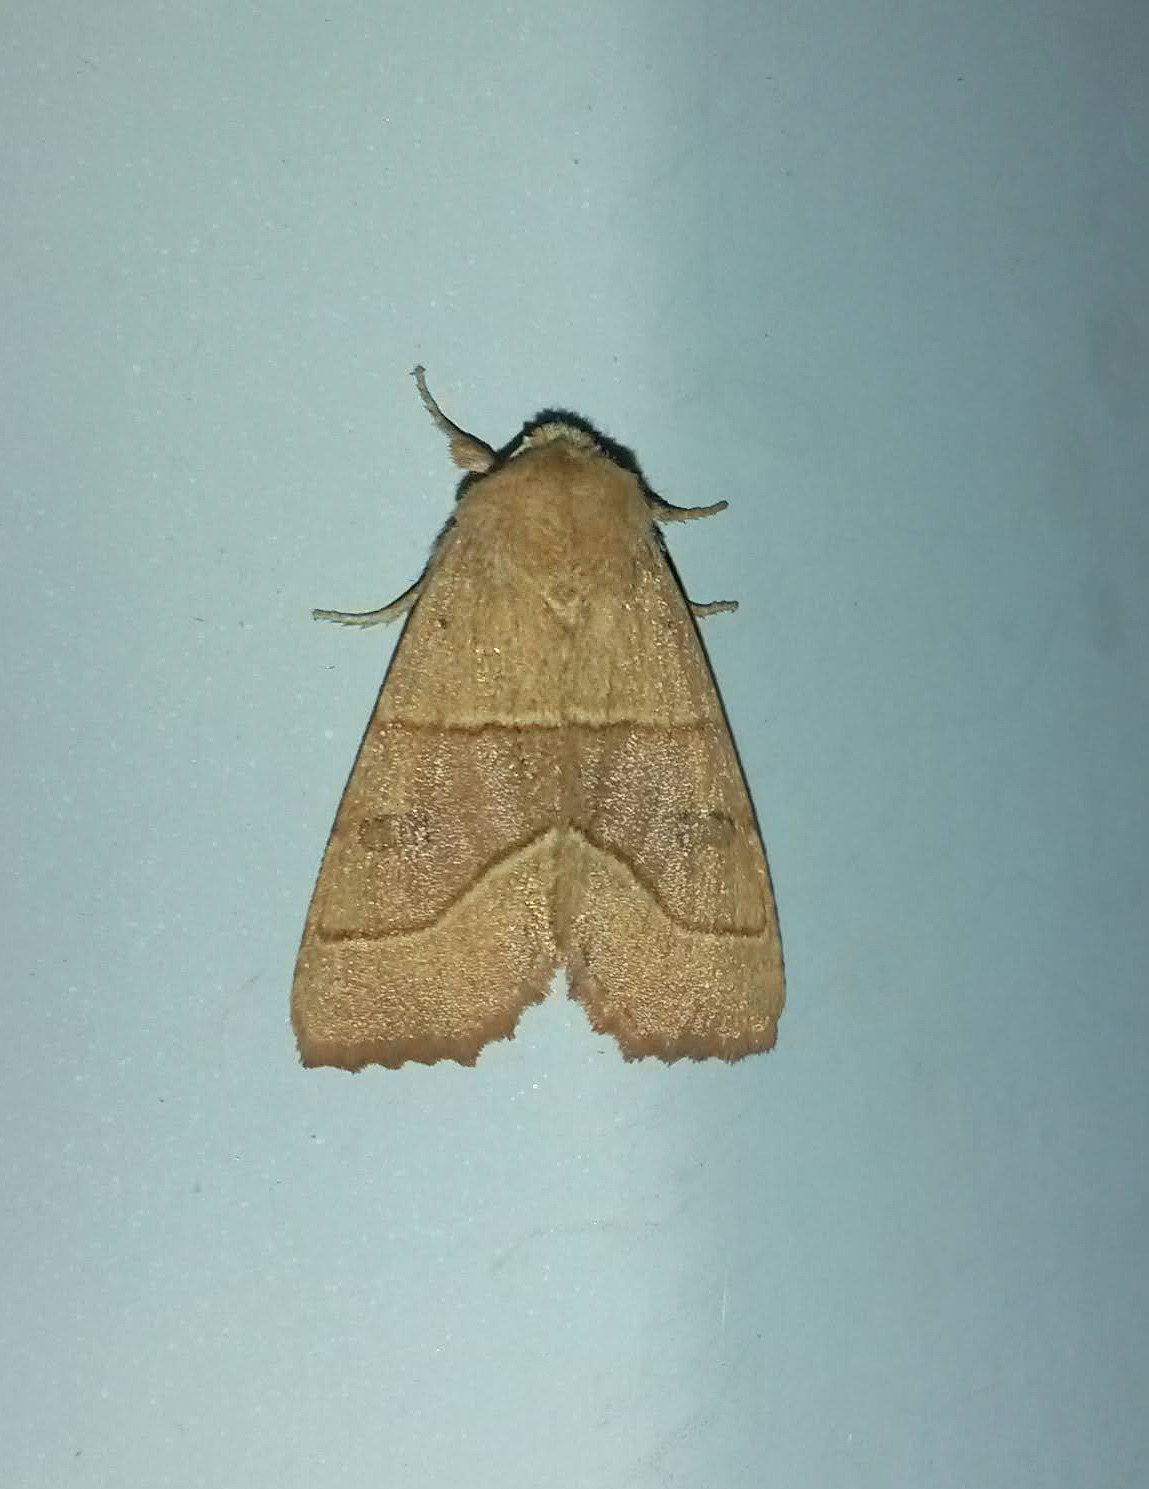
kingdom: Animalia
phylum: Arthropoda
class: Insecta
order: Lepidoptera
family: Noctuidae
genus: Atethmia
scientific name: Atethmia centrago
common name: Centre-barred sallow
